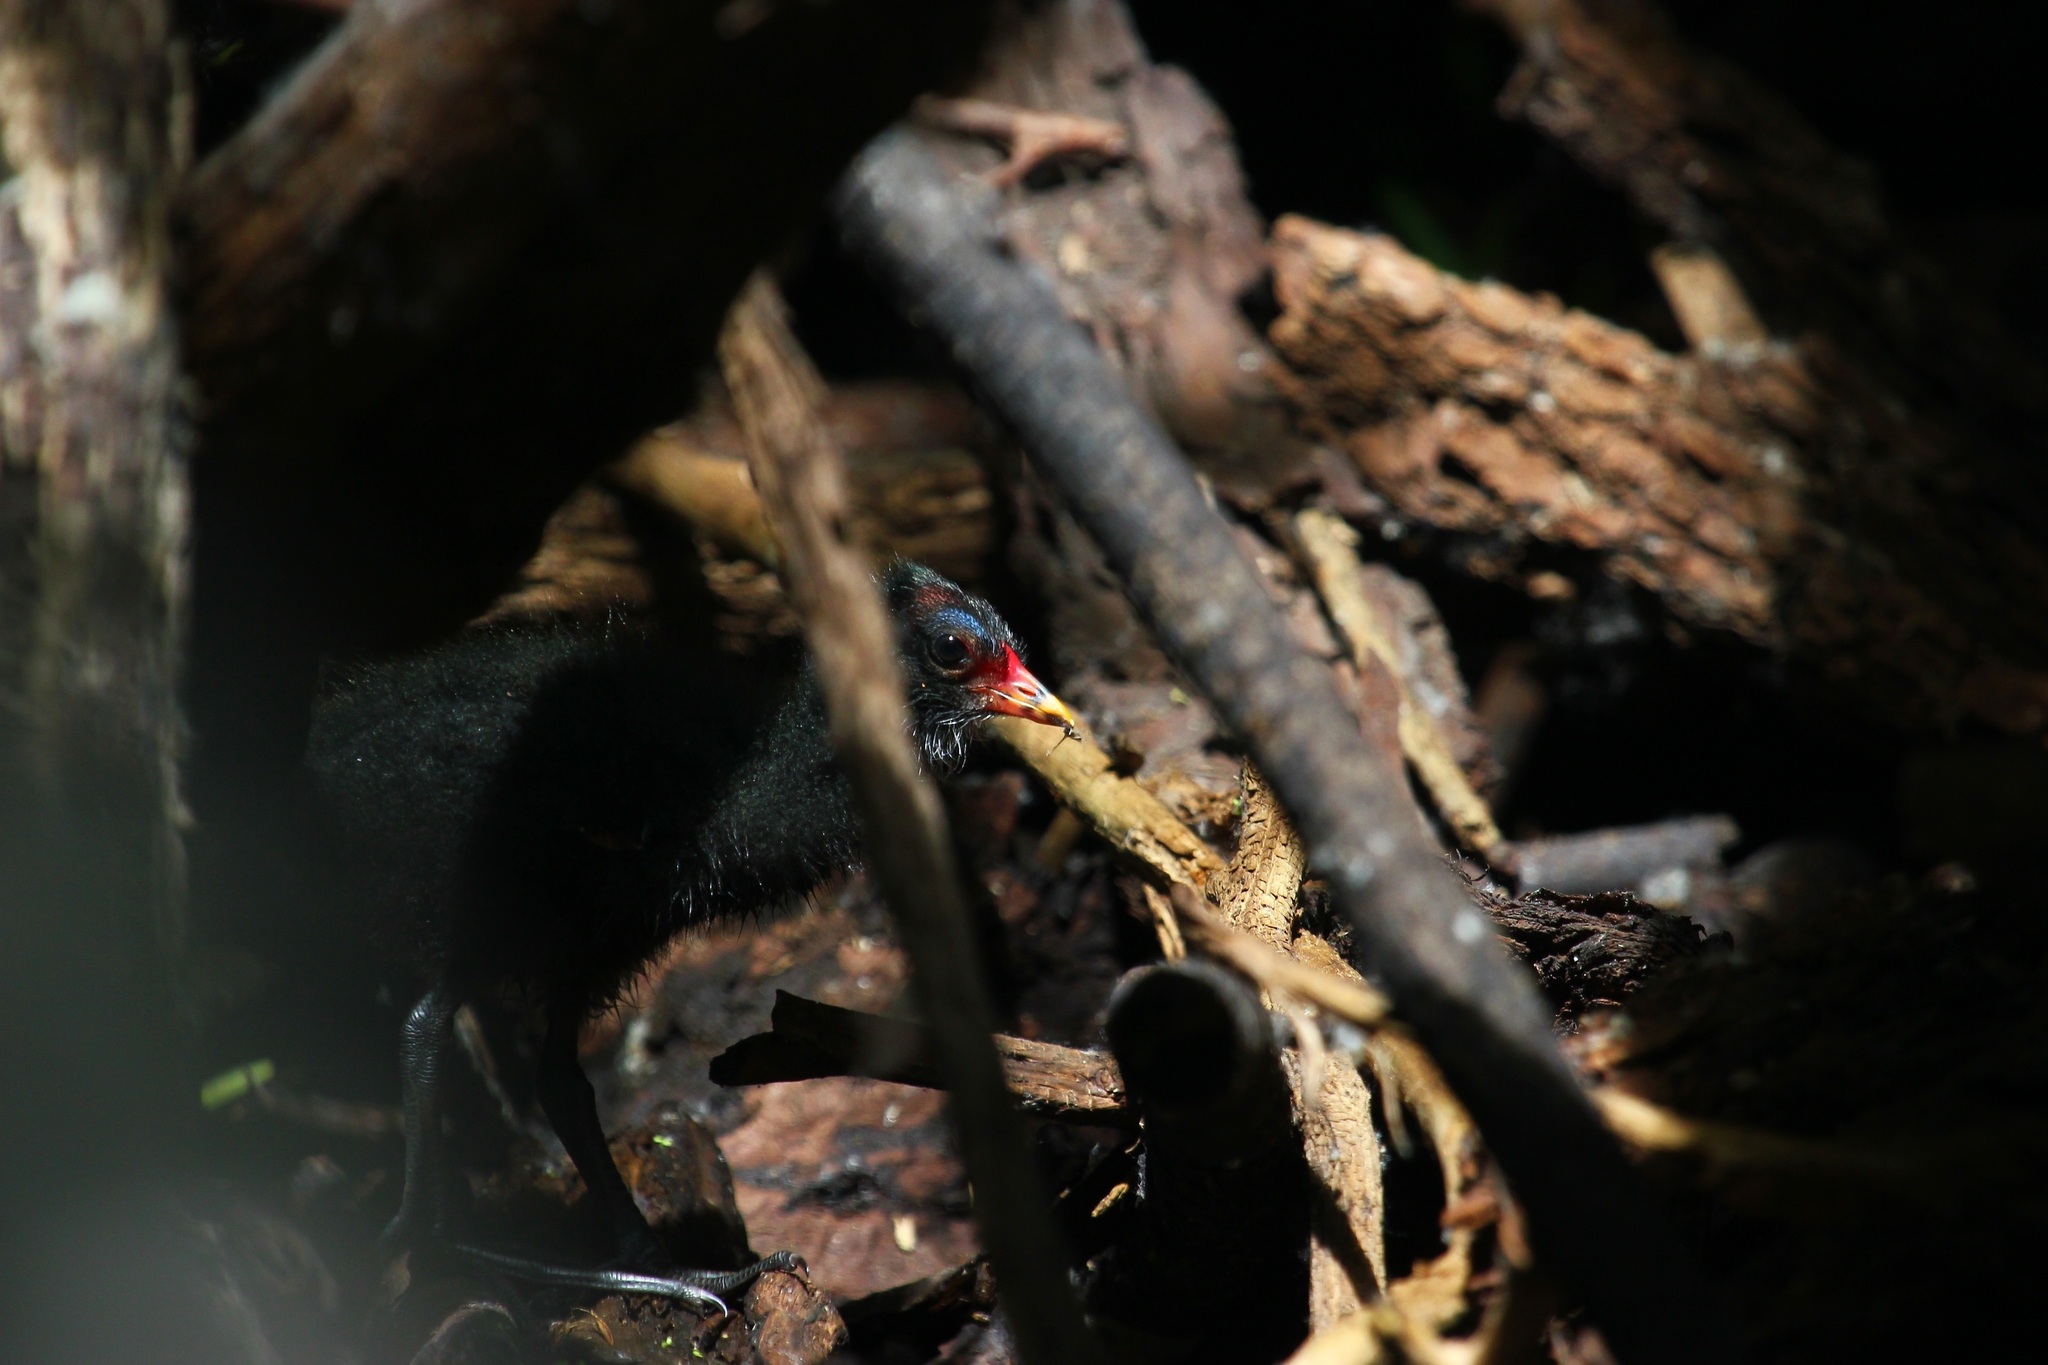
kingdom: Animalia
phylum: Chordata
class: Aves
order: Gruiformes
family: Rallidae
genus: Gallinula
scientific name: Gallinula chloropus
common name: Common moorhen
